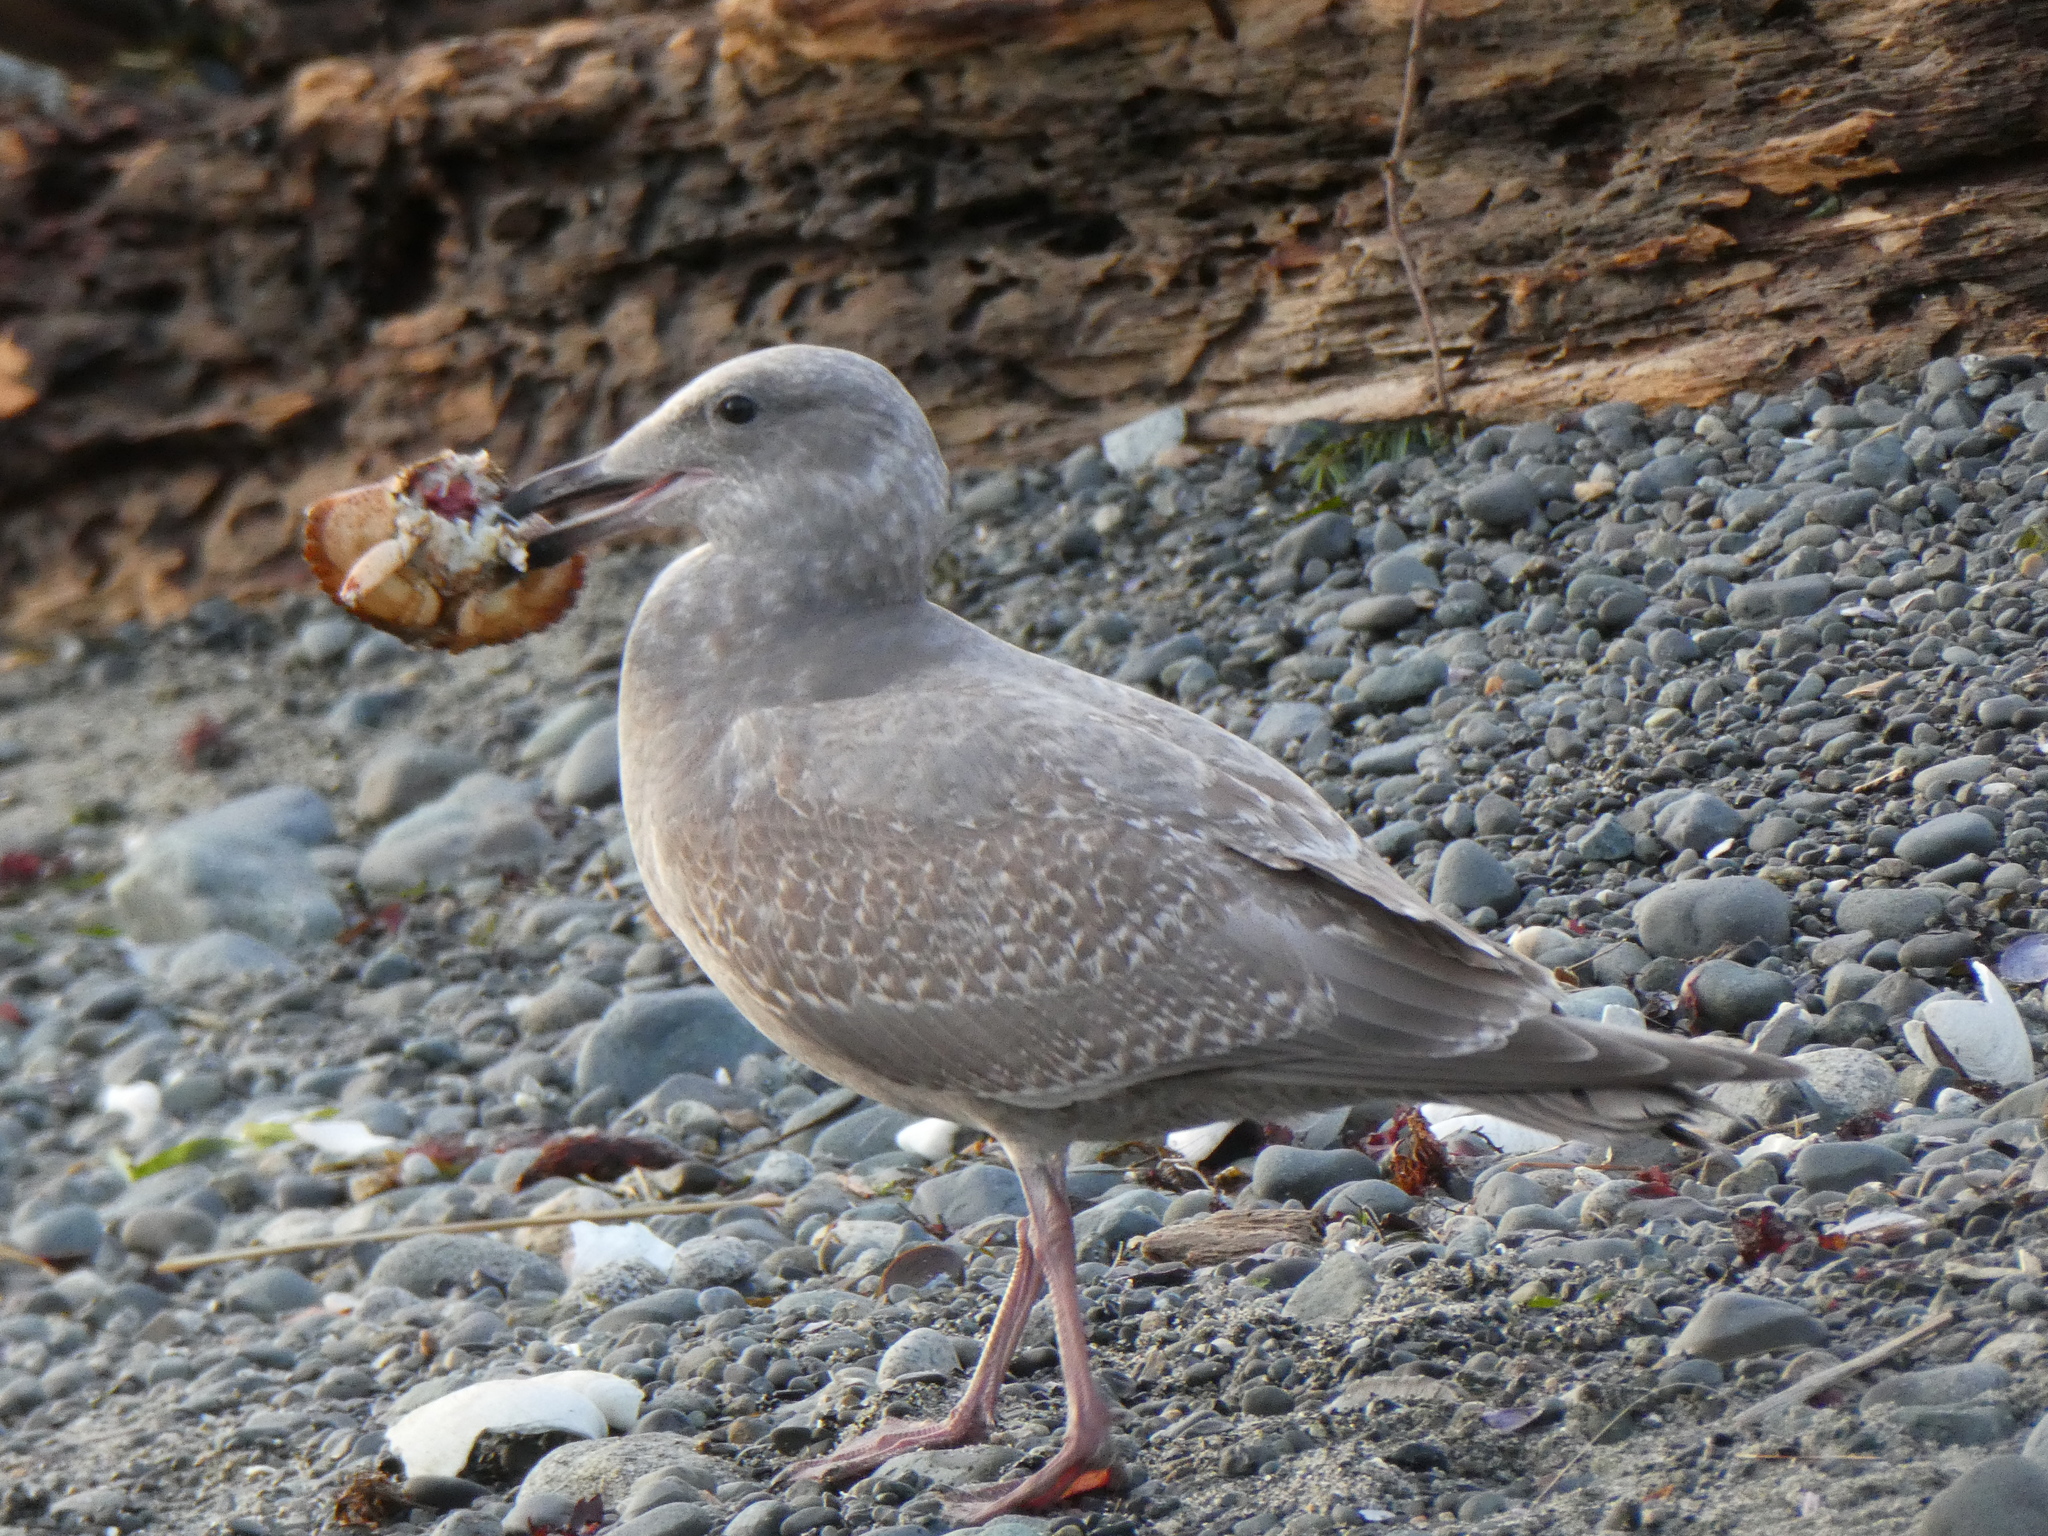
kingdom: Animalia
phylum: Chordata
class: Aves
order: Charadriiformes
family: Laridae
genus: Larus
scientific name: Larus
